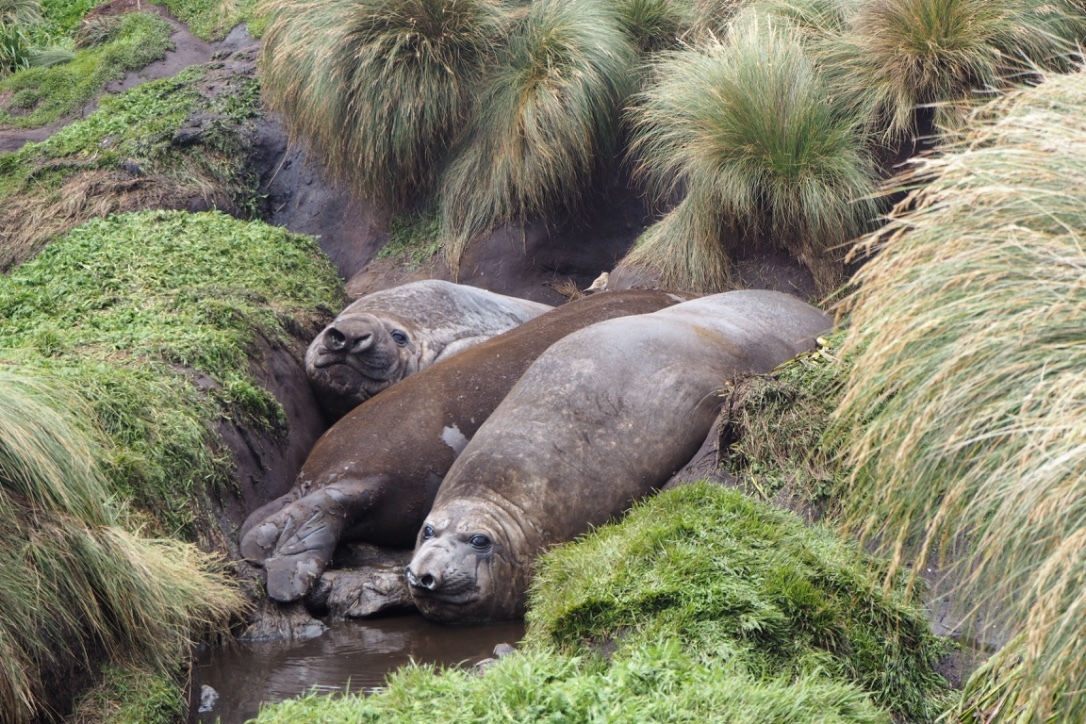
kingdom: Animalia
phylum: Chordata
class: Mammalia
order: Carnivora
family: Phocidae
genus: Mirounga
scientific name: Mirounga leonina
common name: Southern elephant seal
